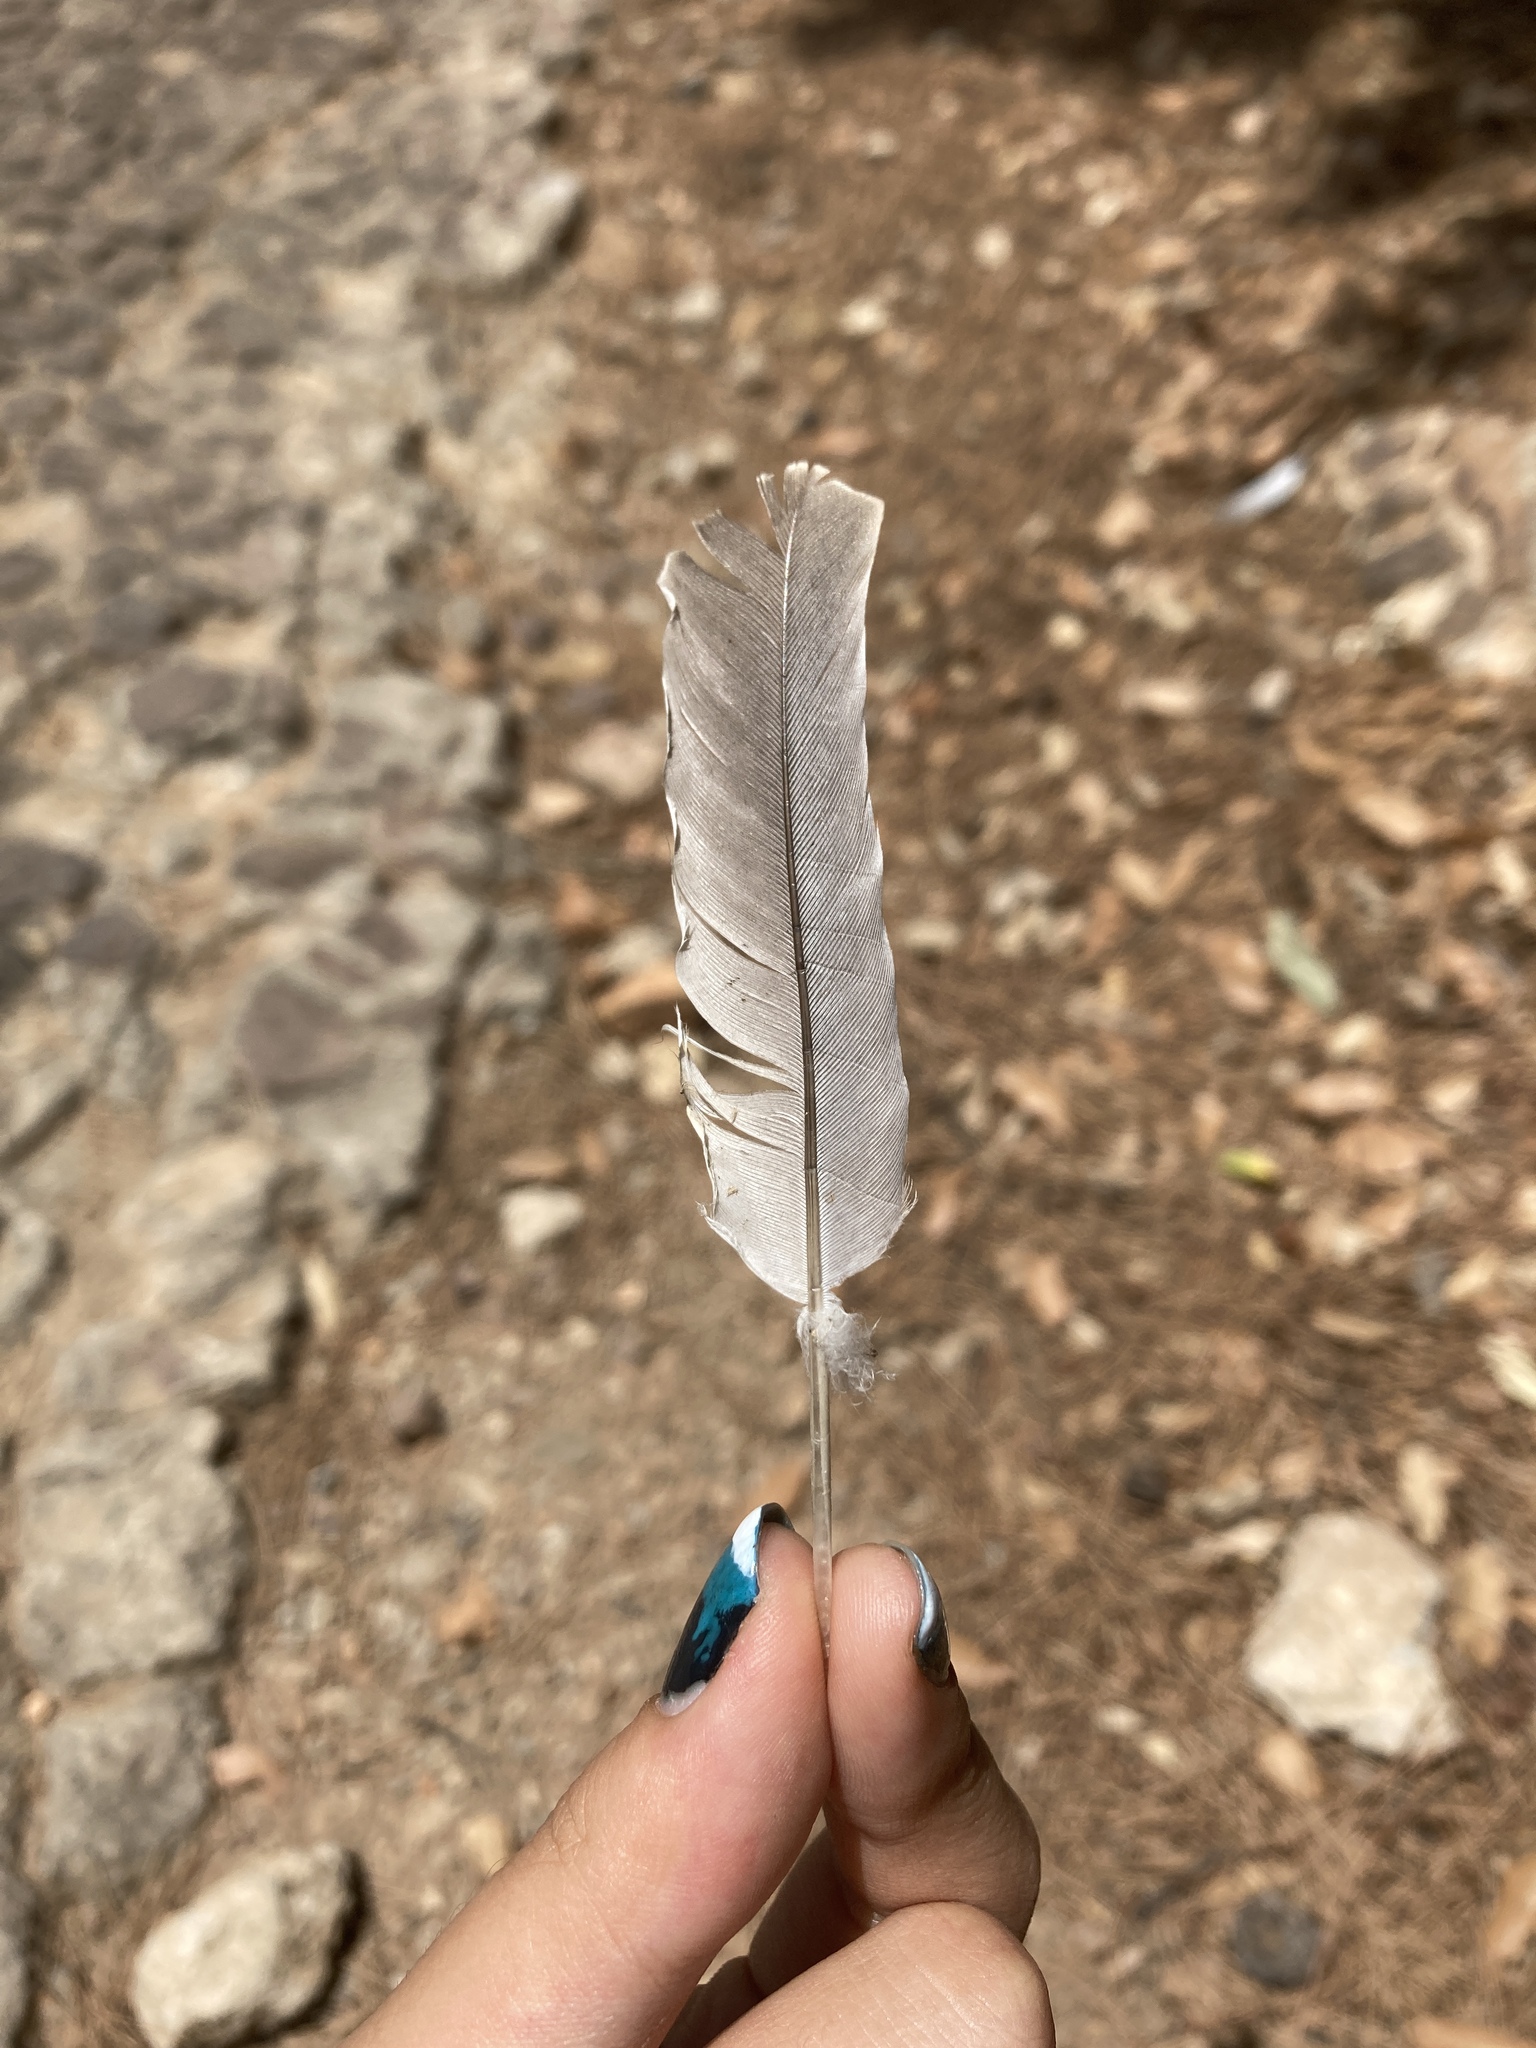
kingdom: Animalia
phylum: Chordata
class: Aves
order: Columbiformes
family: Columbidae
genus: Streptopelia
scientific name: Streptopelia decaocto
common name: Eurasian collared dove
